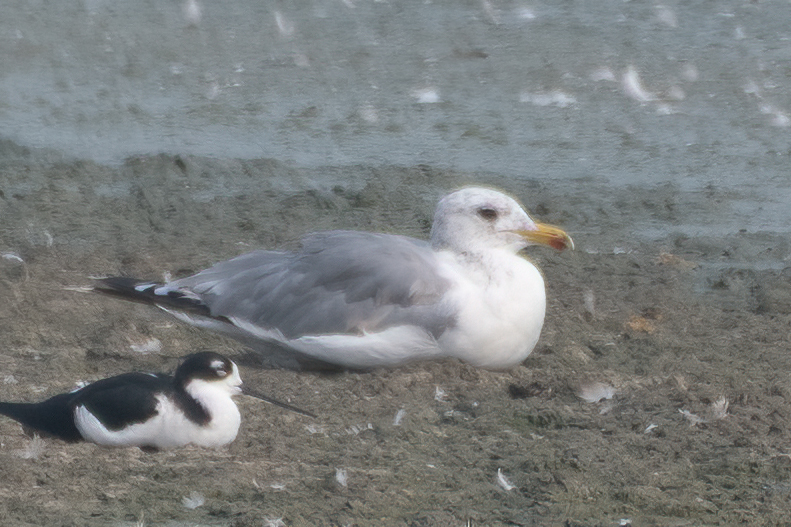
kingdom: Animalia
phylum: Chordata
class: Aves
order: Charadriiformes
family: Laridae
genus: Larus
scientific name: Larus californicus
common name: California gull
